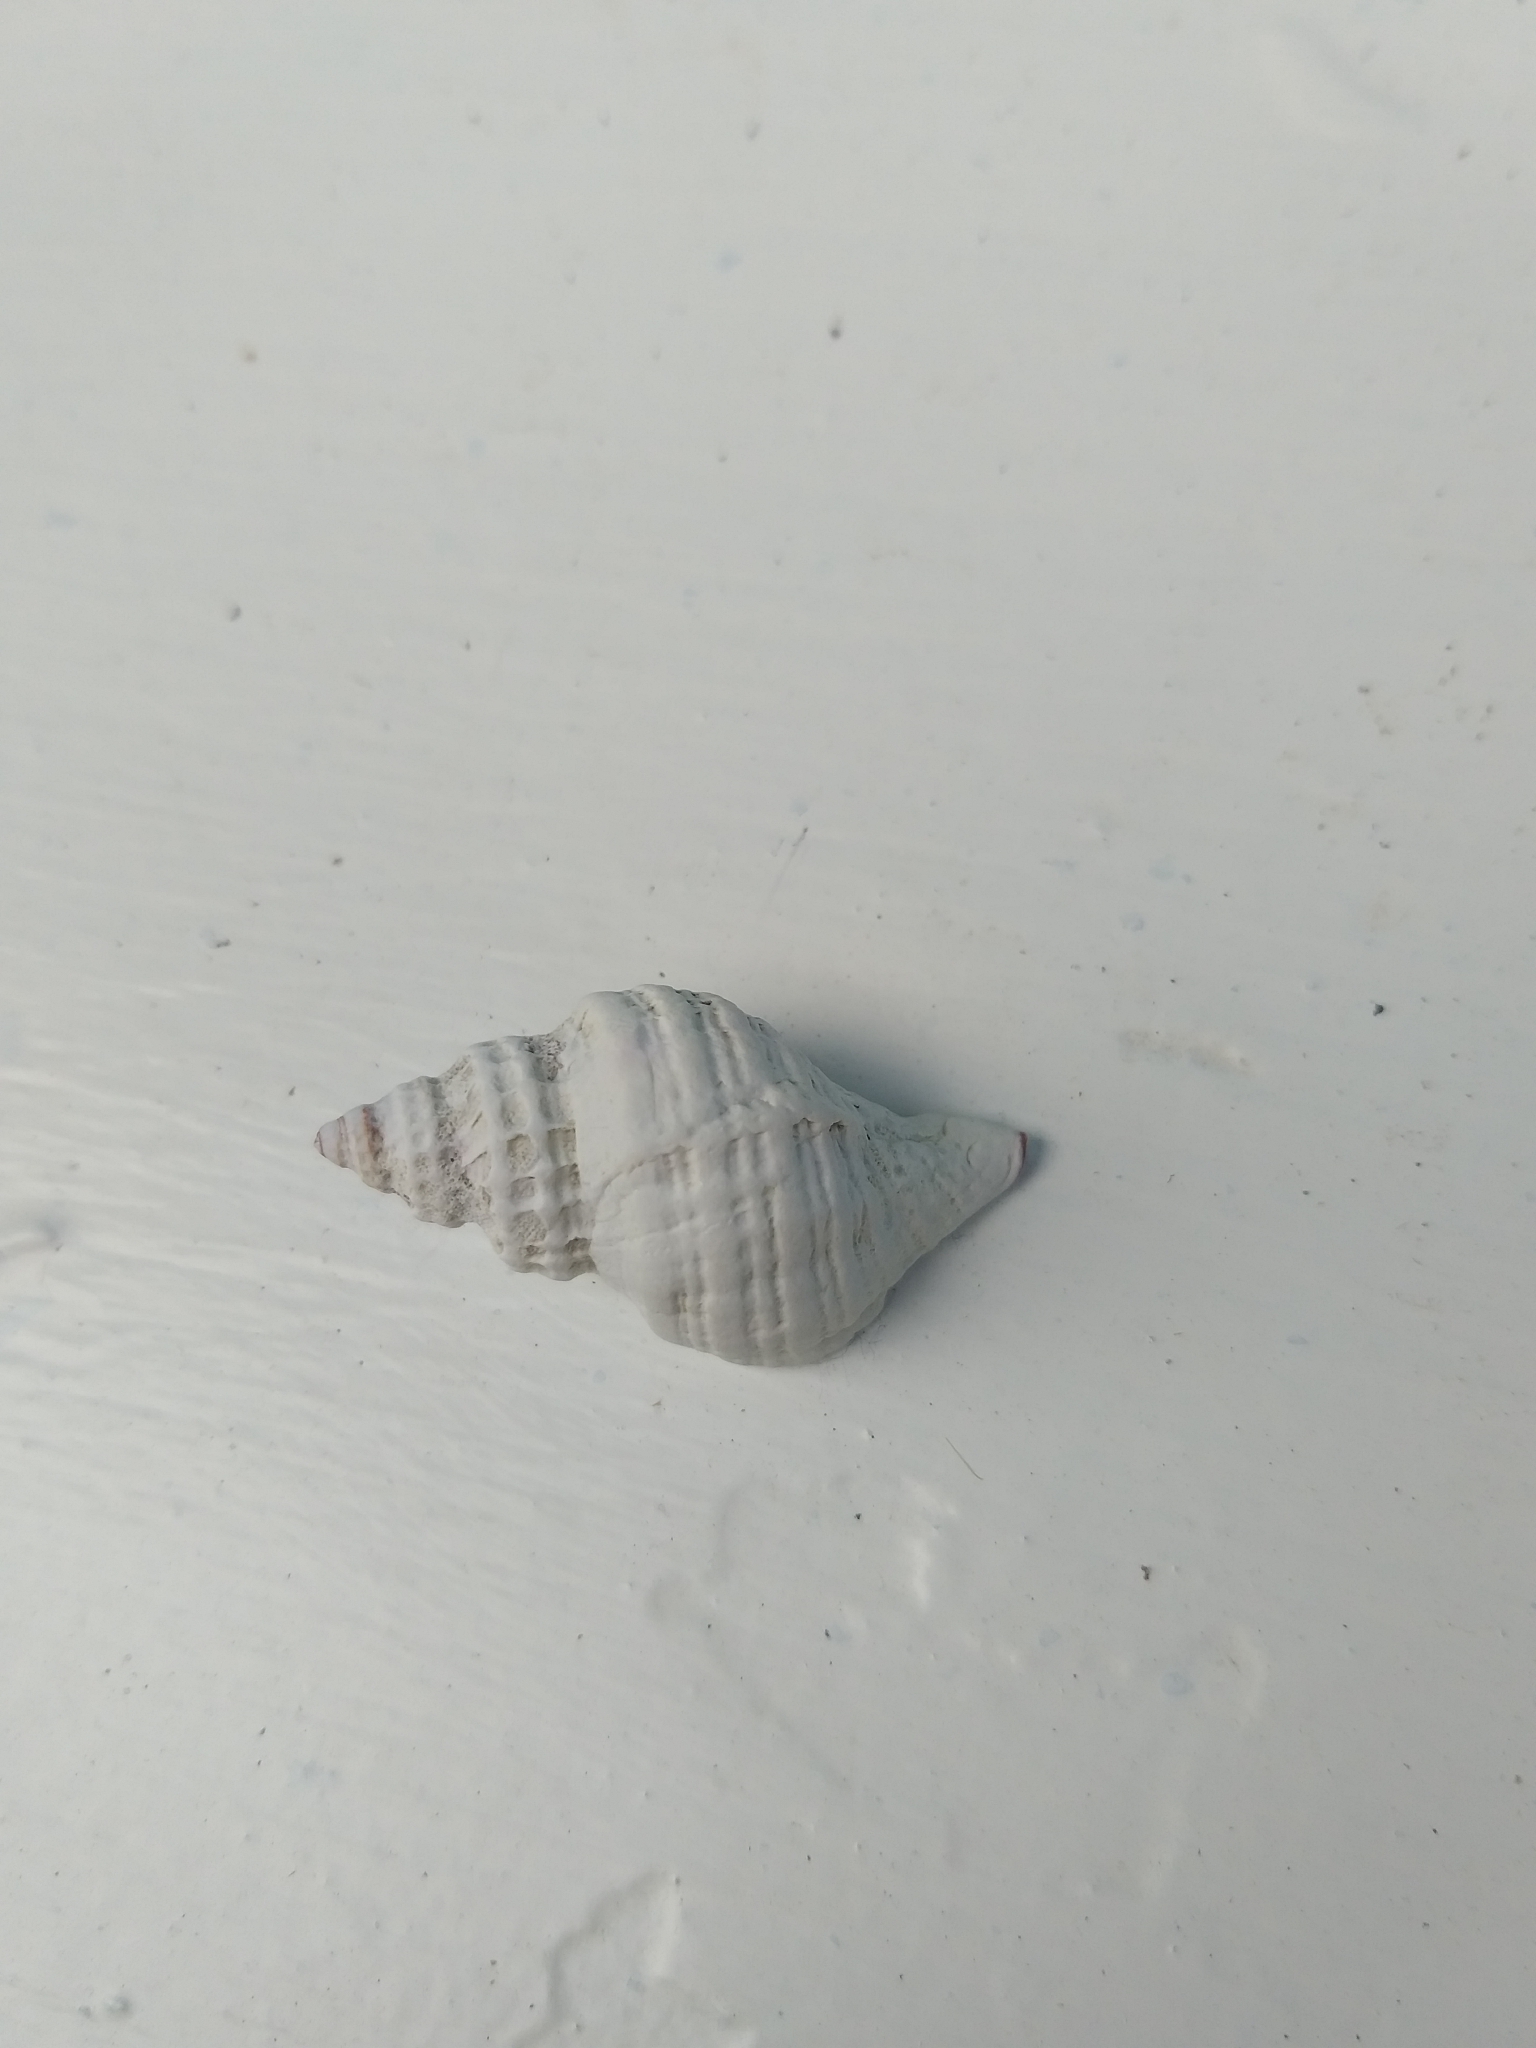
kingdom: Animalia
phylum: Mollusca
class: Gastropoda
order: Neogastropoda
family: Muricidae
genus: Zeatrophon
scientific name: Zeatrophon ambiguus
